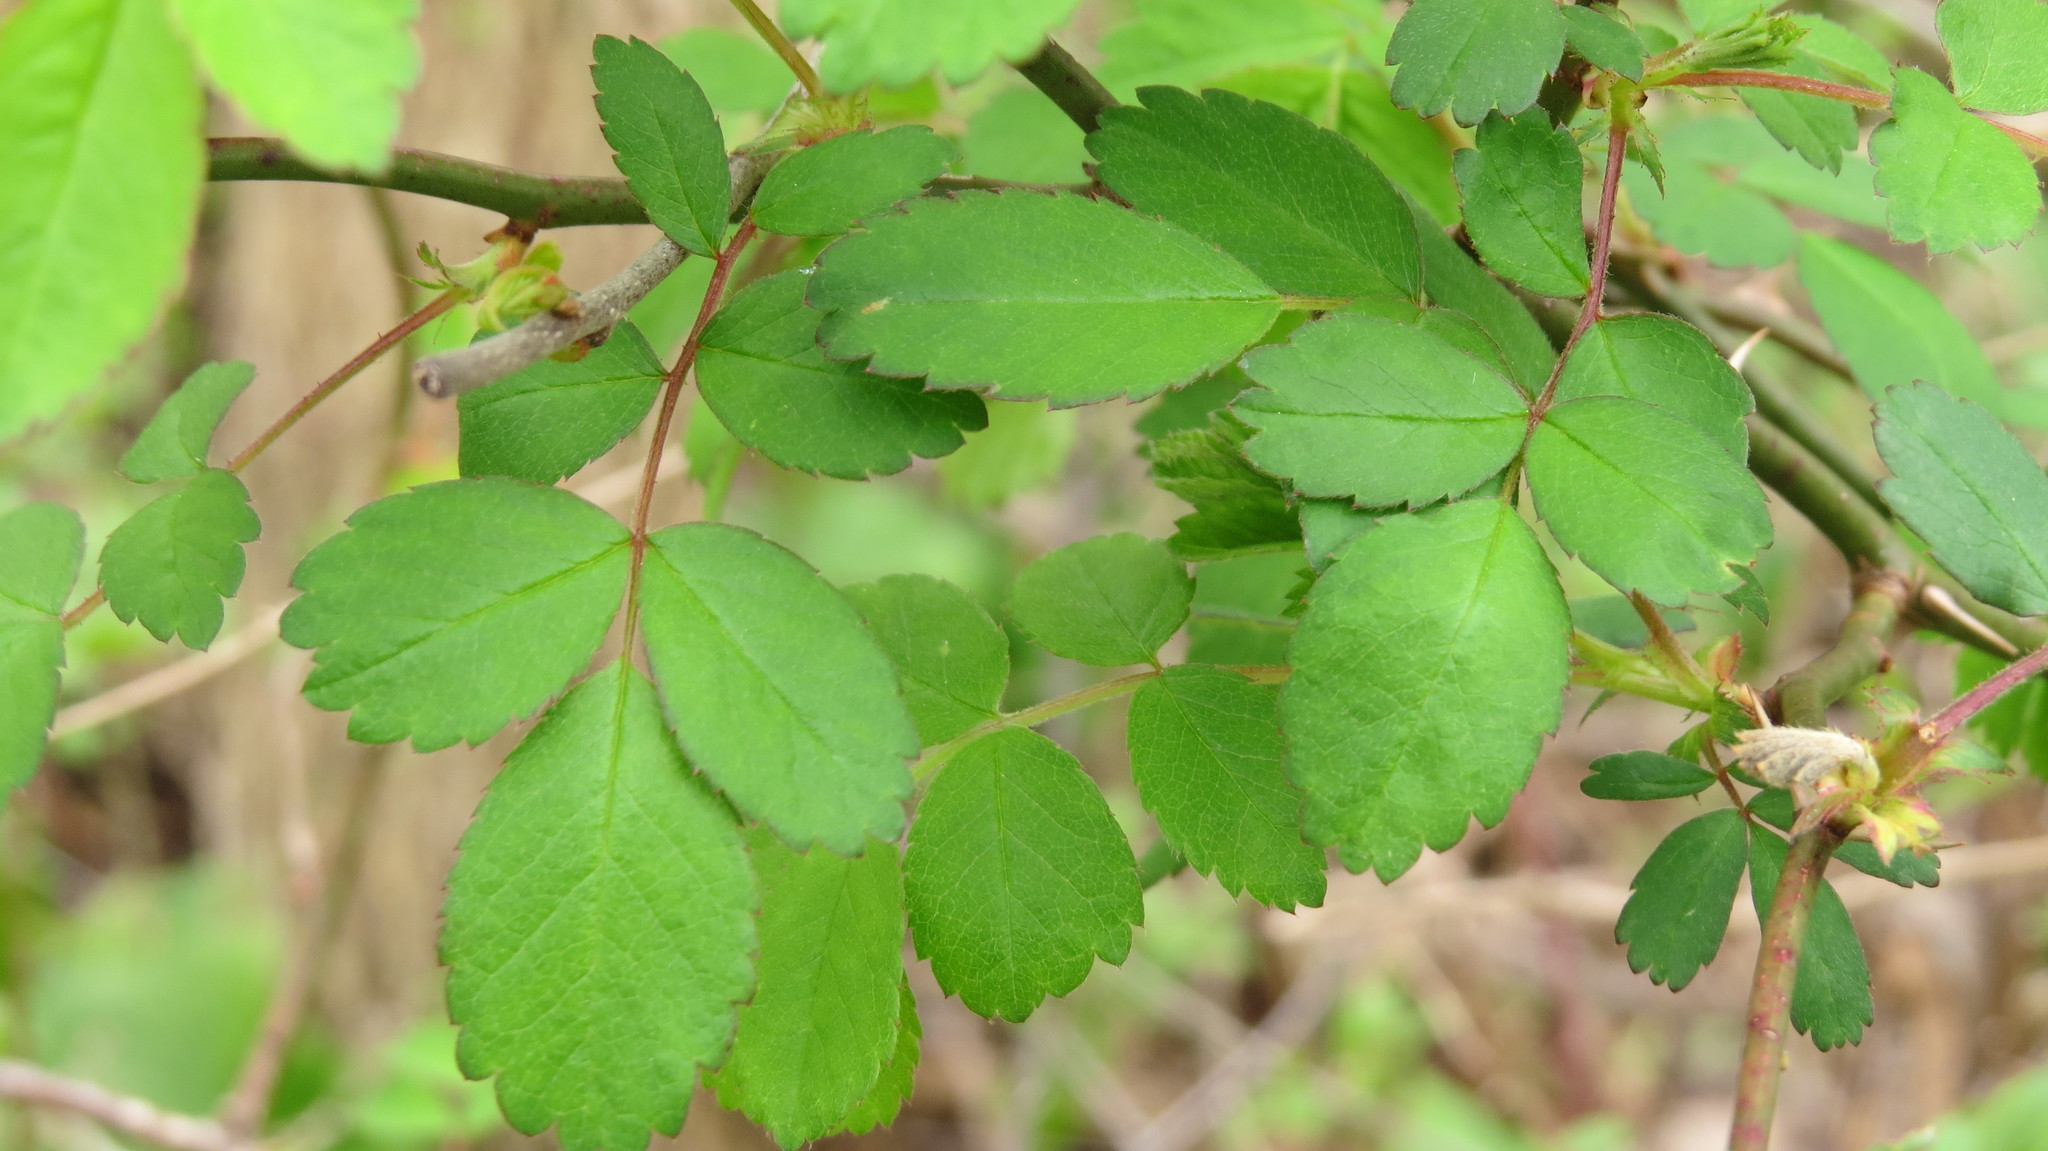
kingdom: Plantae
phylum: Tracheophyta
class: Magnoliopsida
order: Rosales
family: Rosaceae
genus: Rosa
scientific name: Rosa multiflora
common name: Multiflora rose
